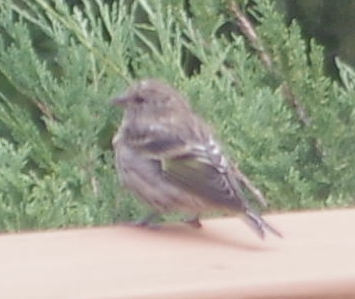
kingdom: Animalia
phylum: Chordata
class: Aves
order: Passeriformes
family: Fringillidae
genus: Spinus
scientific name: Spinus pinus
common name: Pine siskin
